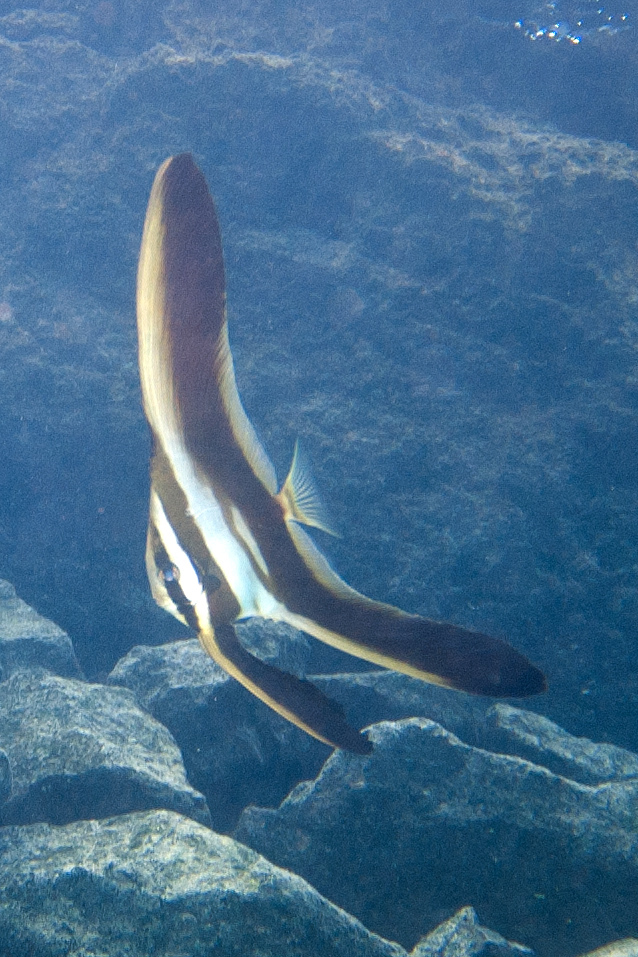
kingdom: Animalia
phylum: Chordata
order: Perciformes
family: Ephippidae
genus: Platax
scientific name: Platax teira
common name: Longfin baitfish
